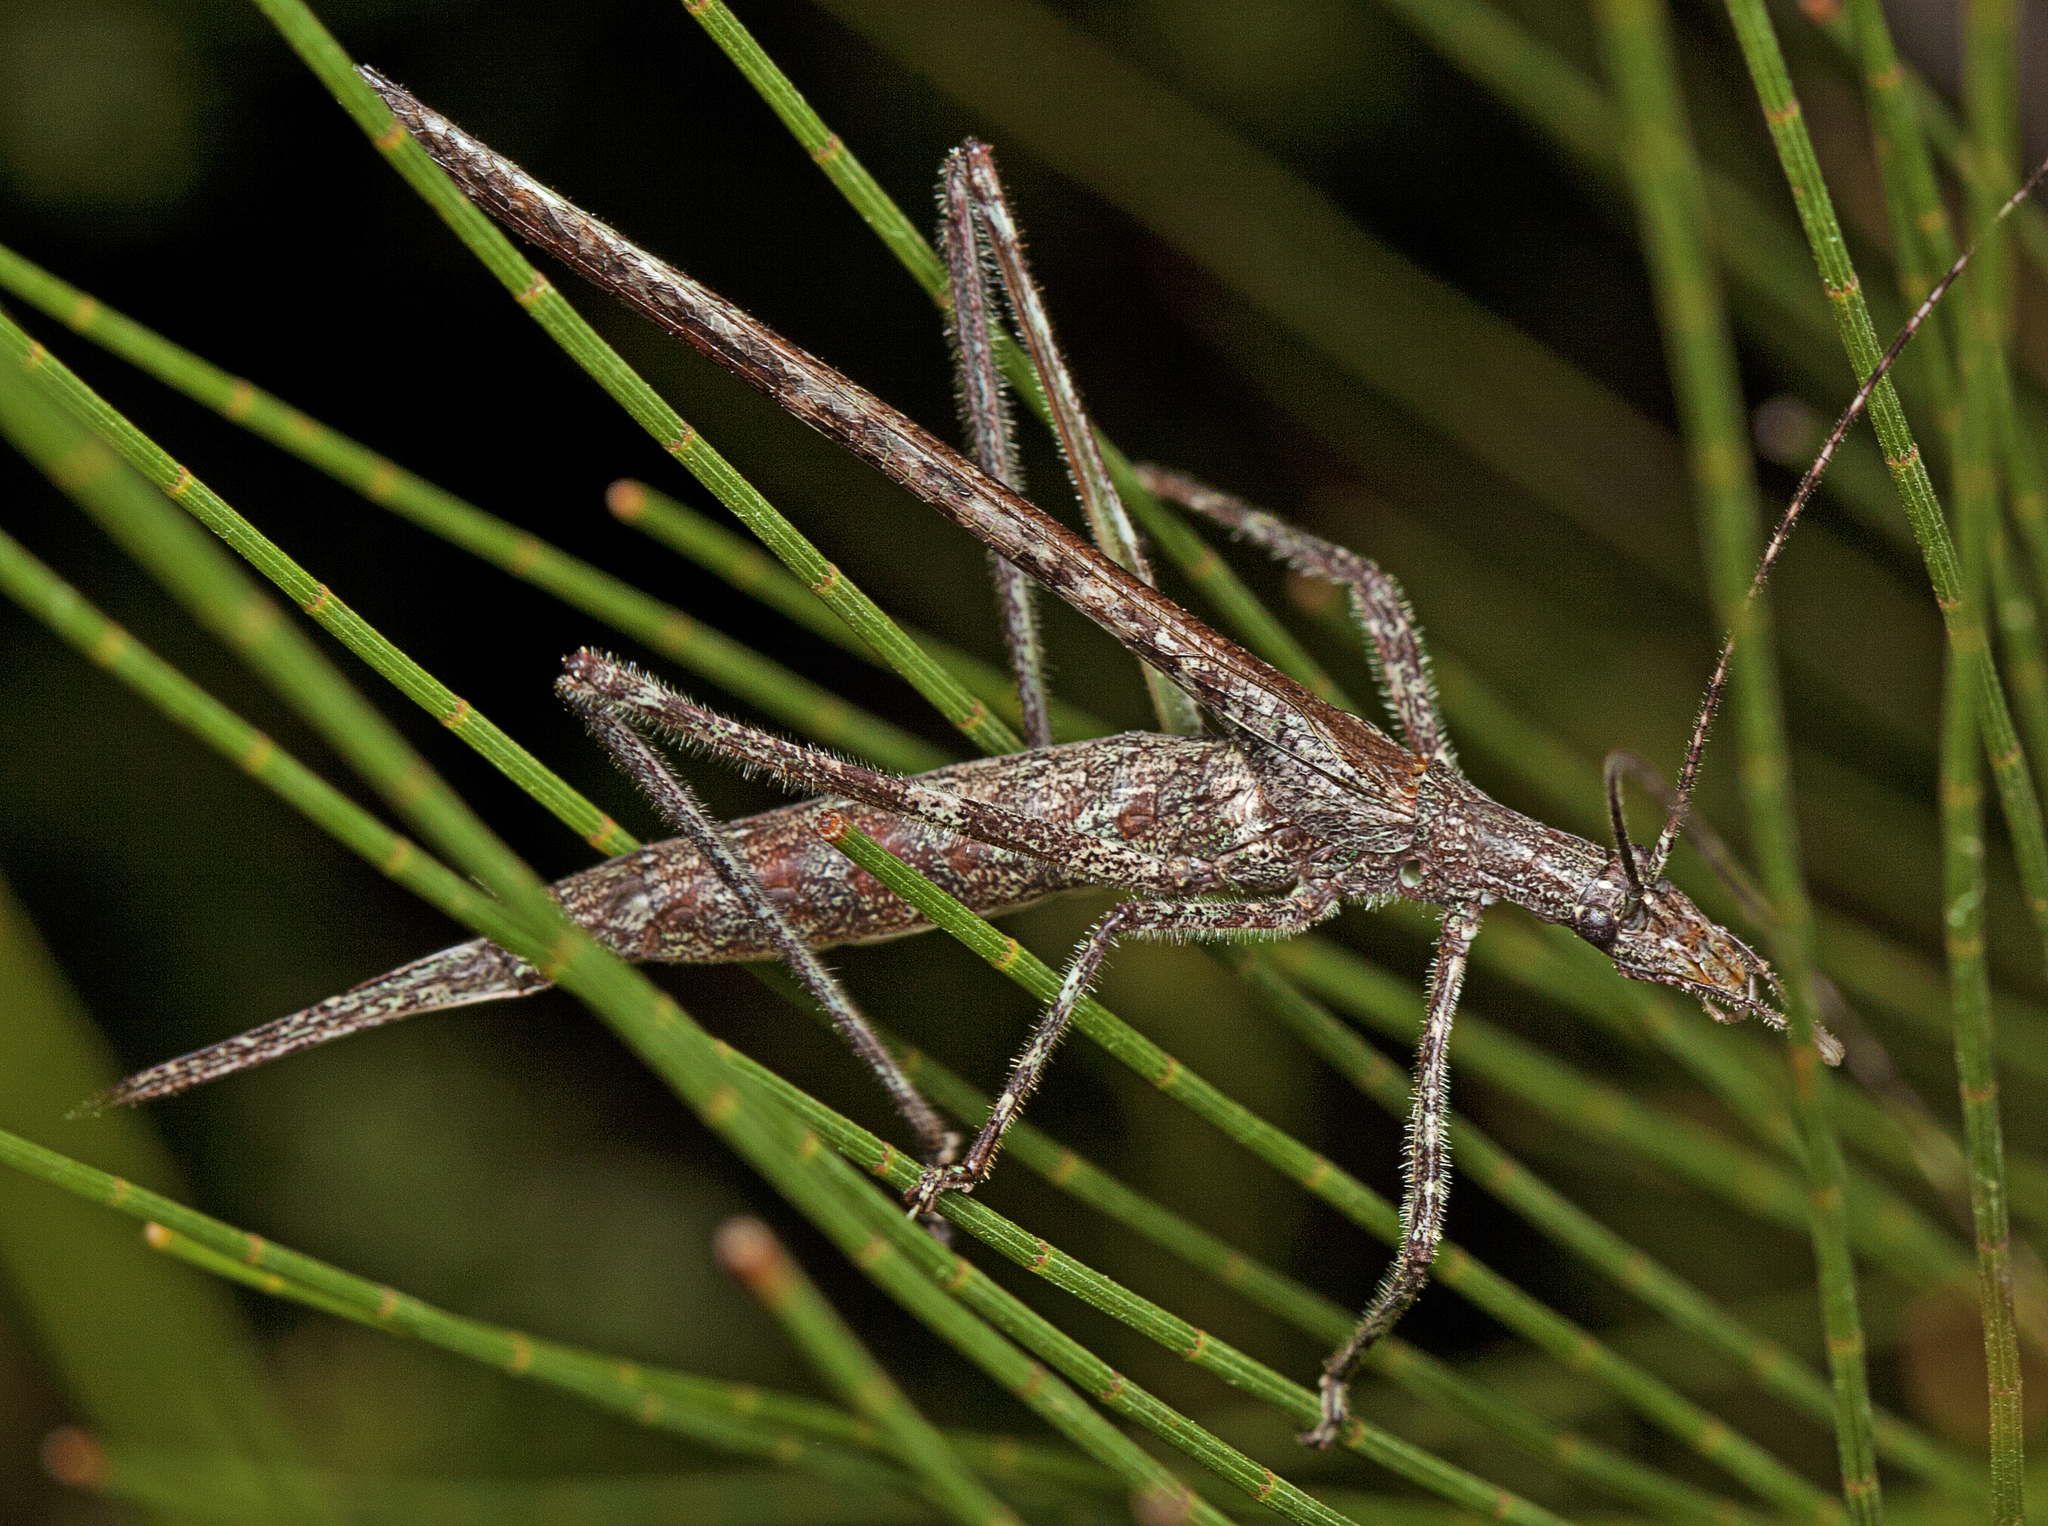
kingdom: Animalia
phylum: Arthropoda
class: Insecta
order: Orthoptera
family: Tettigoniidae
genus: Zaprochilus
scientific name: Zaprochilus australis
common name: Australian twig-mimicking katydid
